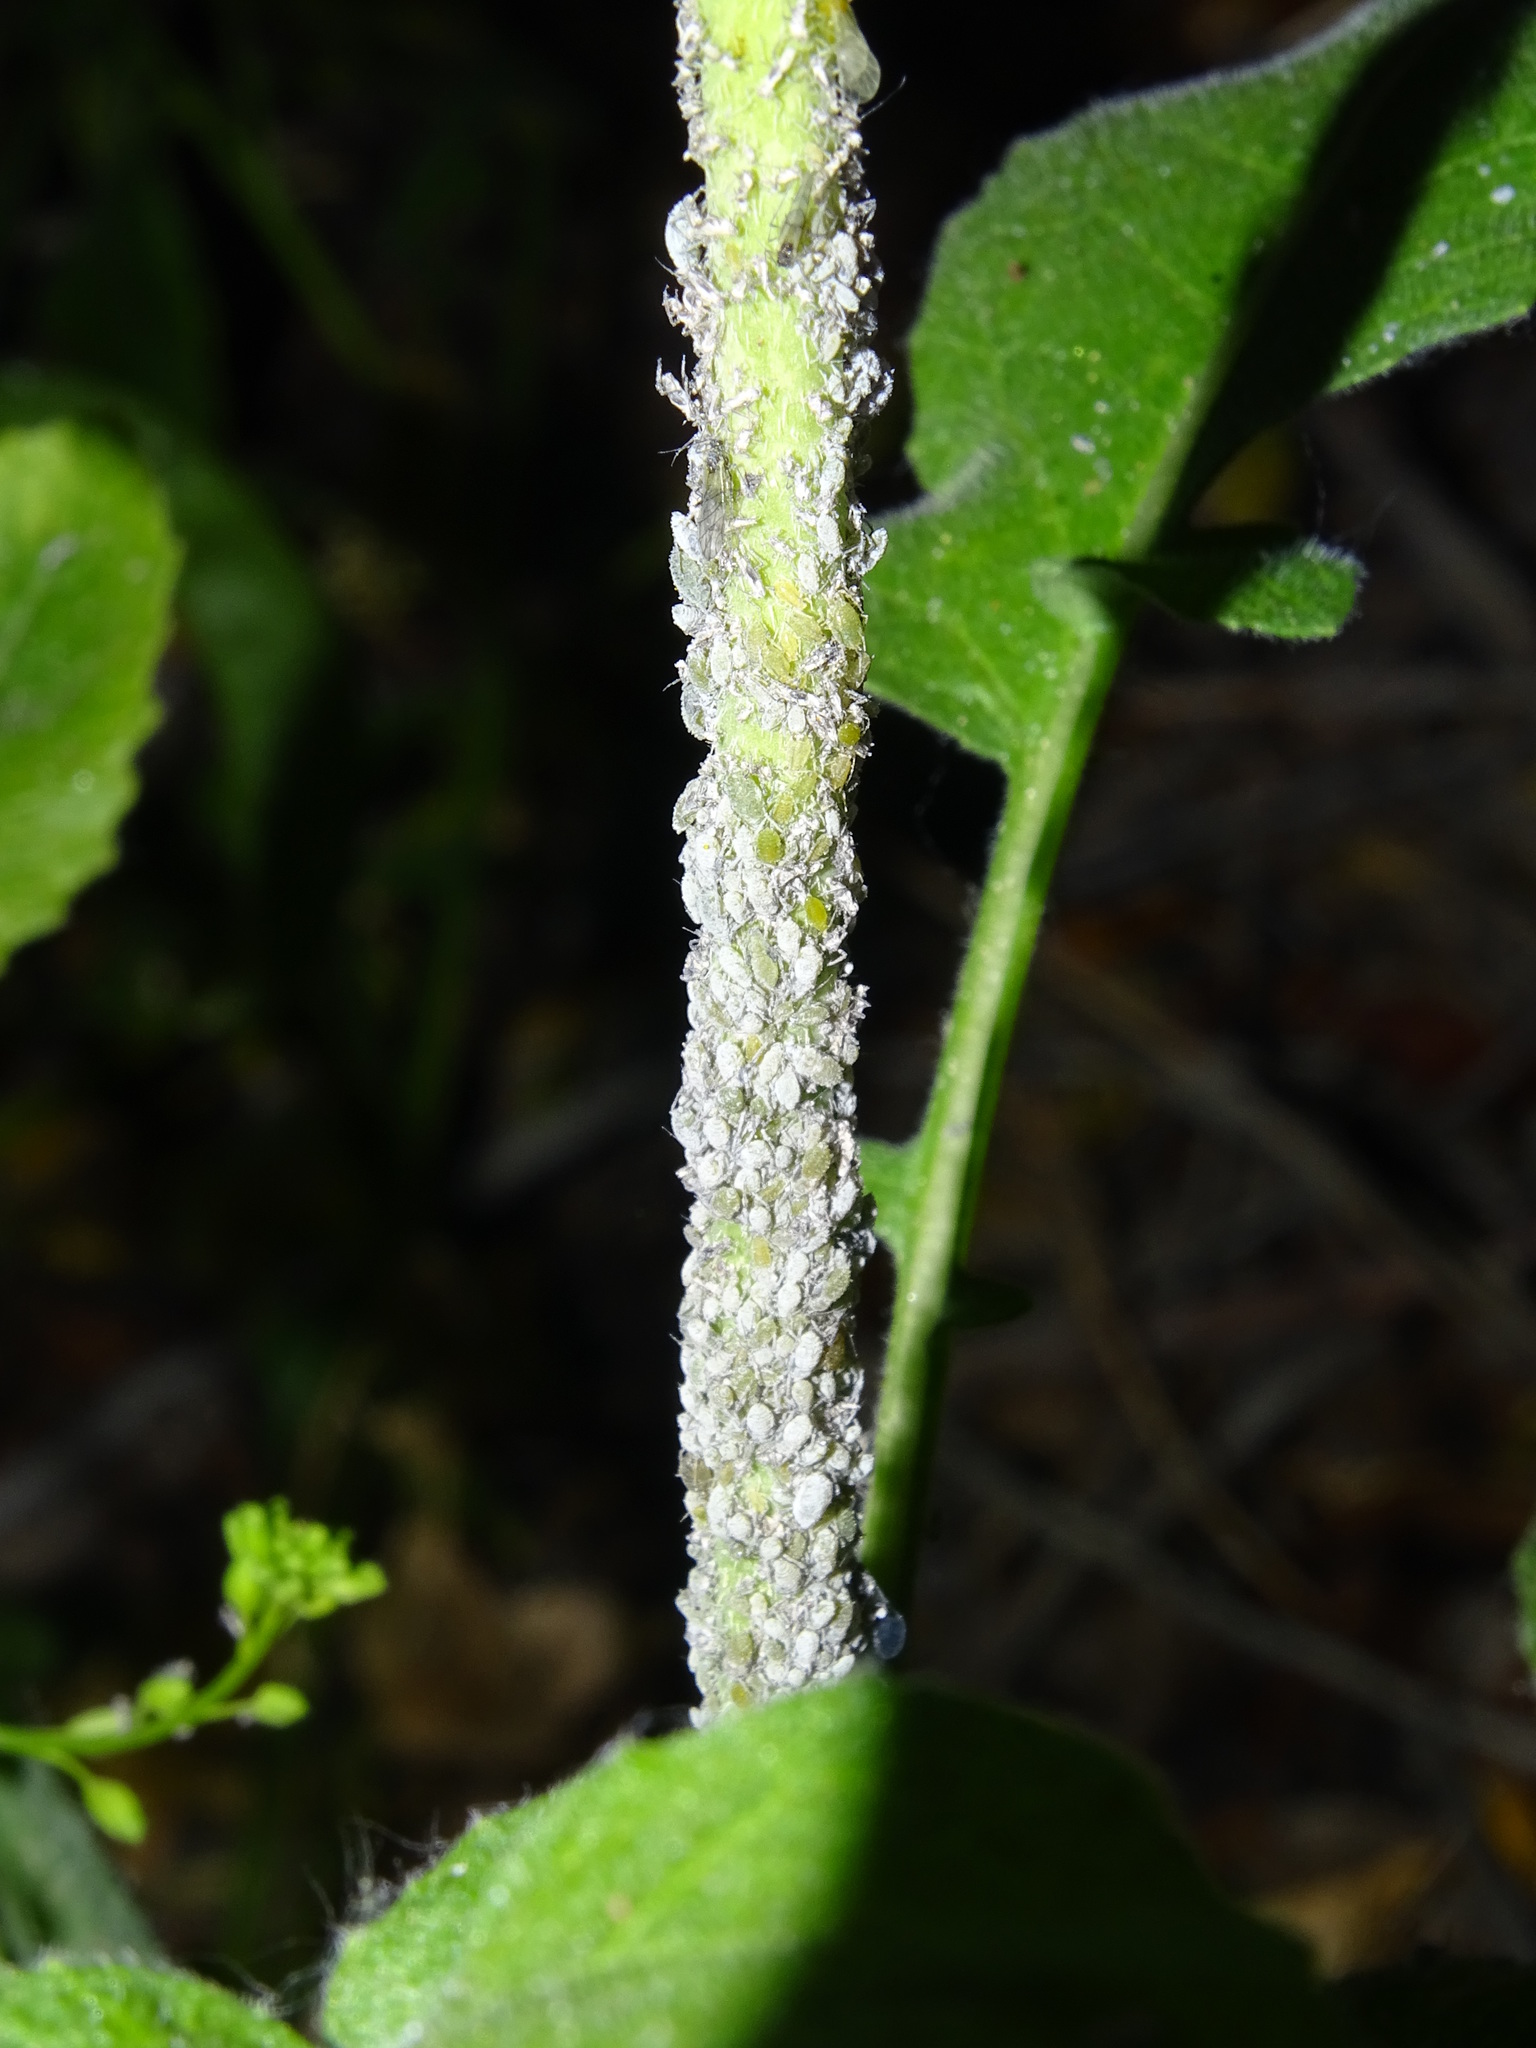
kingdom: Animalia
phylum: Arthropoda
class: Insecta
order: Hemiptera
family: Aphididae
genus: Brevicoryne
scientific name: Brevicoryne brassicae
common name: Cabbage aphid
